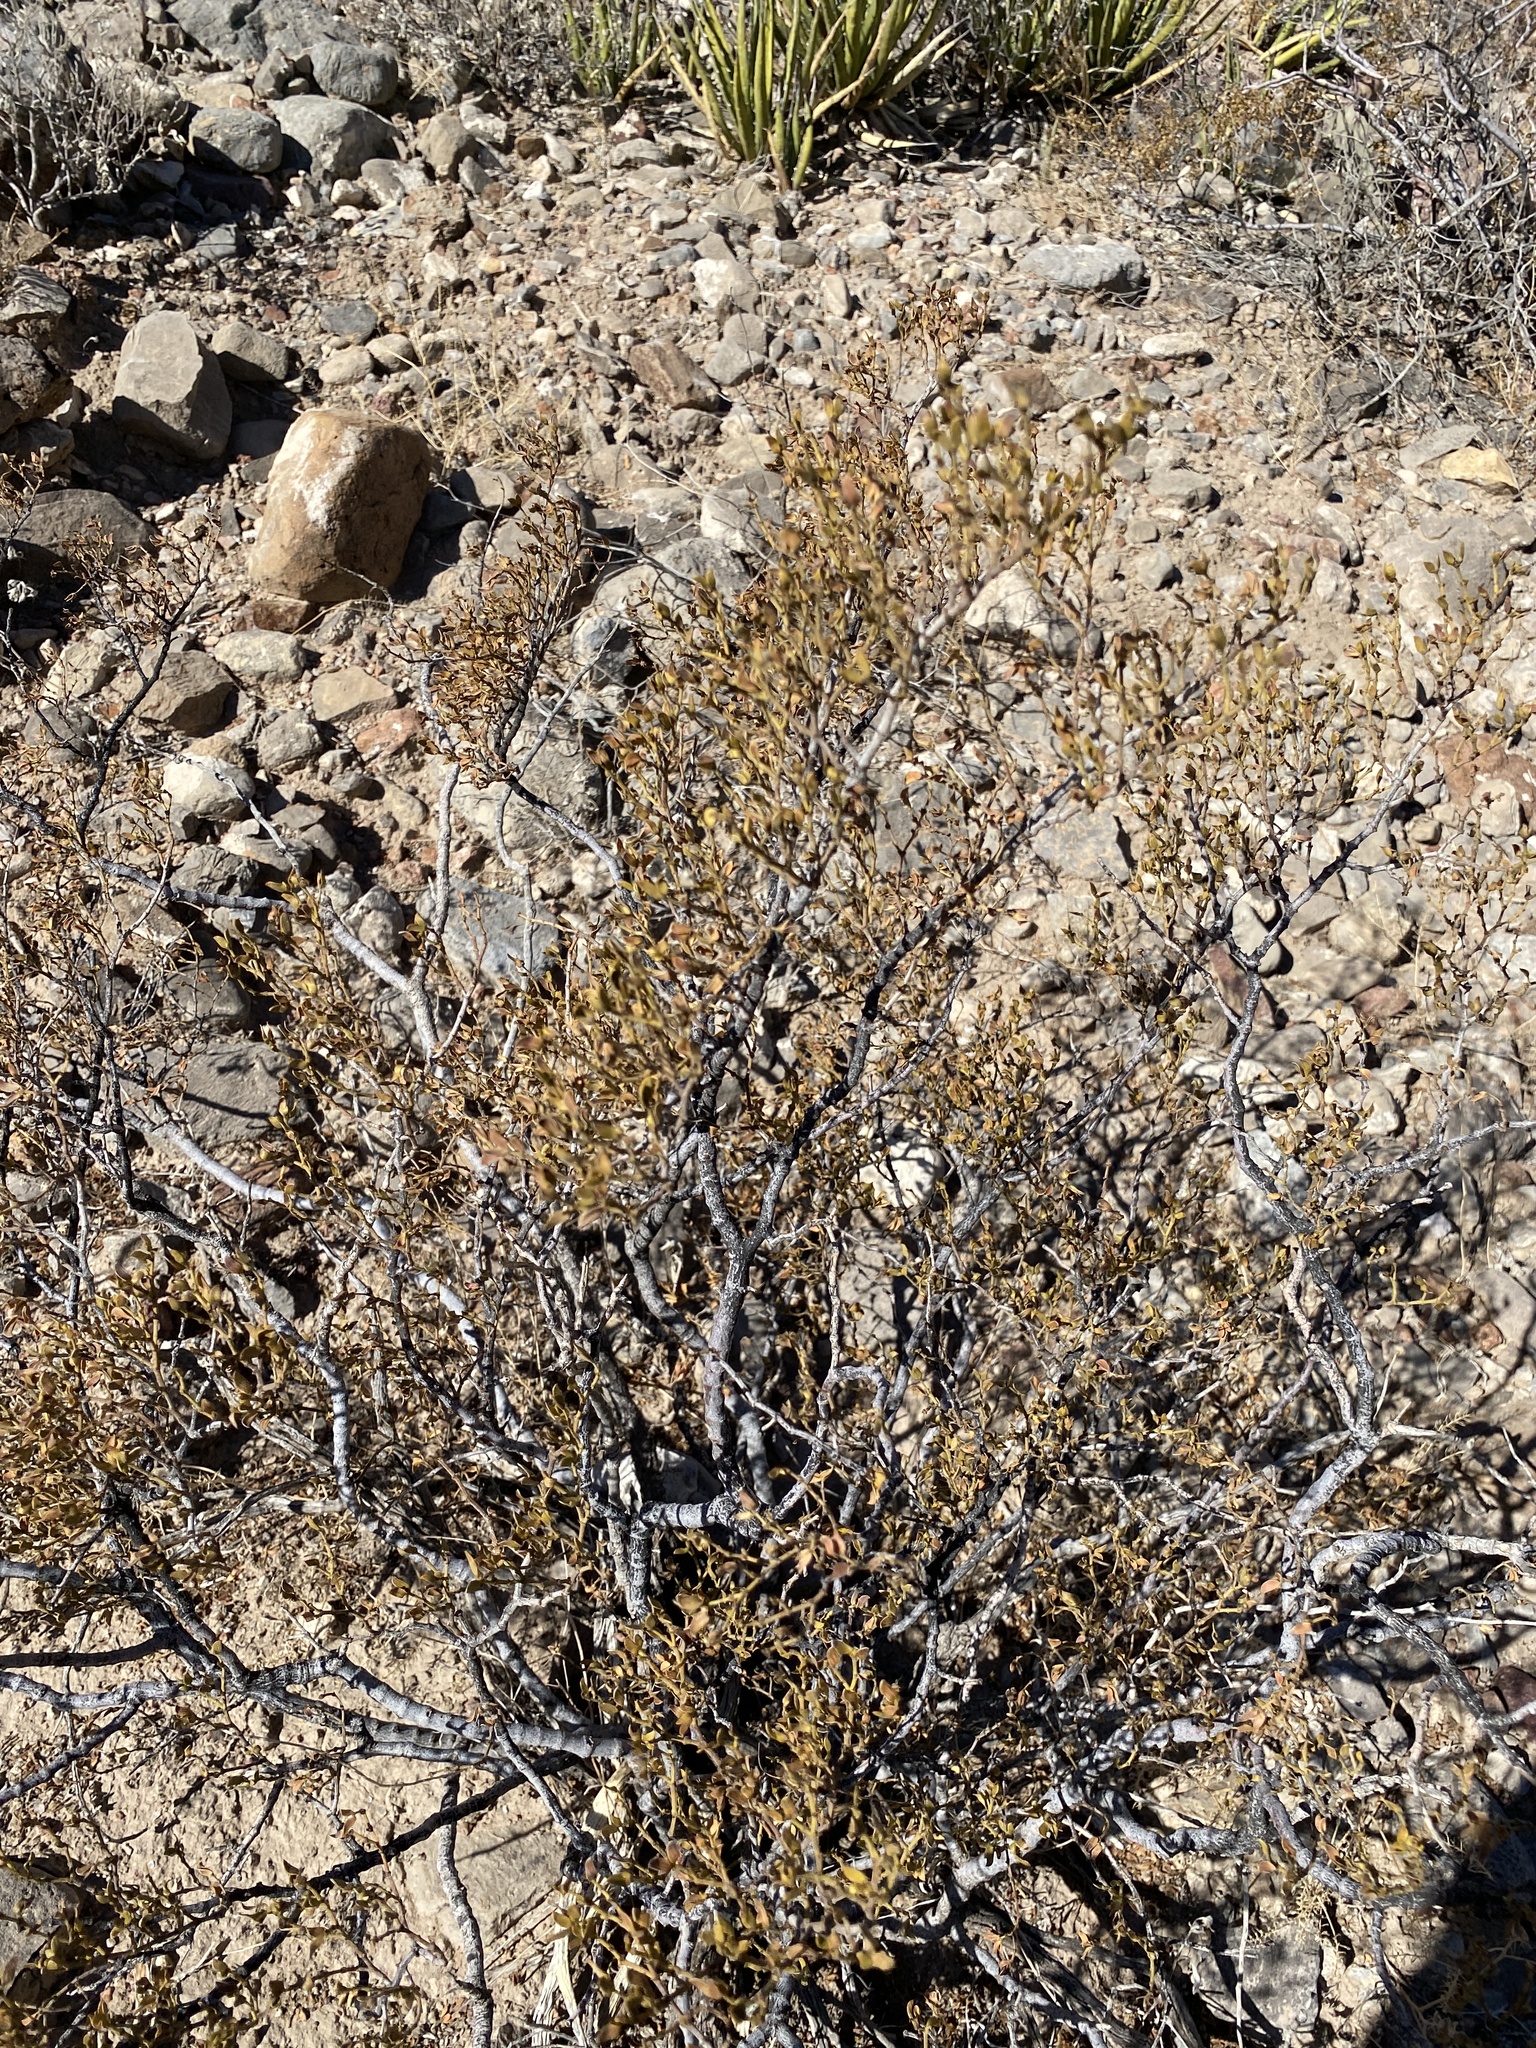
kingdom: Plantae
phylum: Tracheophyta
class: Magnoliopsida
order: Zygophyllales
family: Zygophyllaceae
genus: Larrea
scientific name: Larrea tridentata
